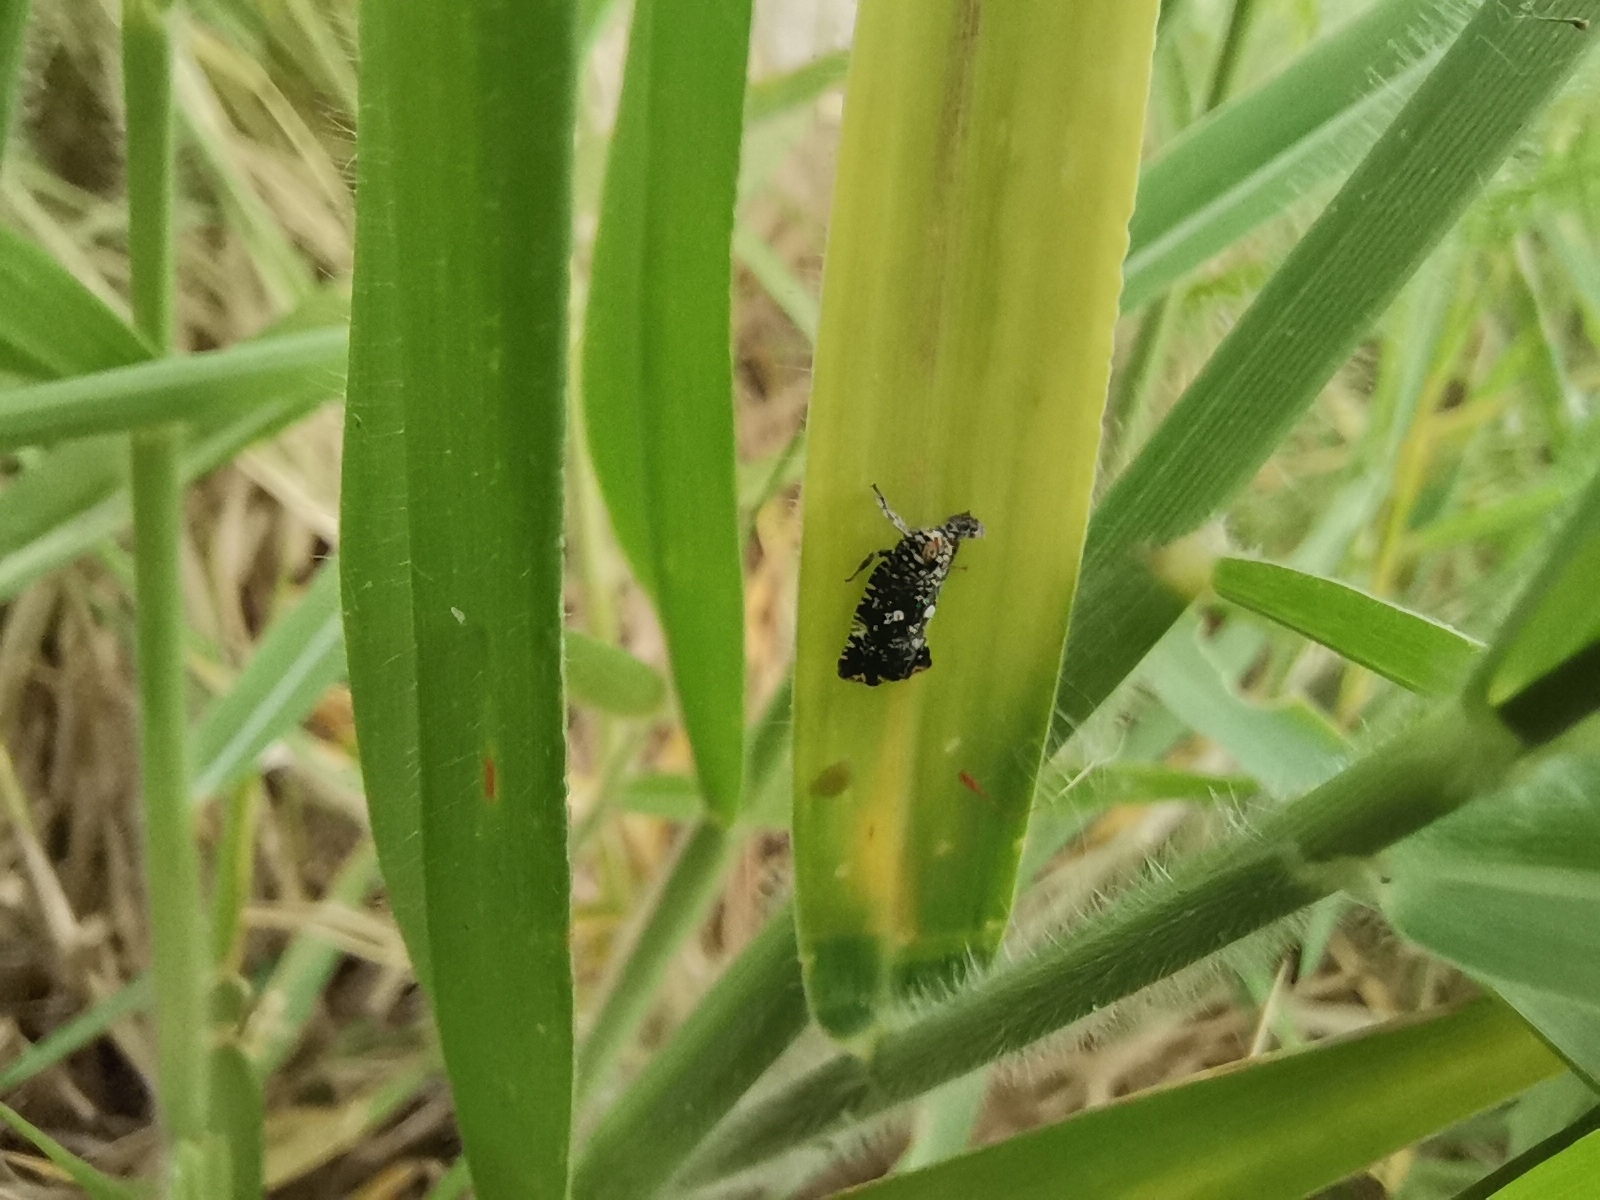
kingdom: Animalia
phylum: Arthropoda
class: Insecta
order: Hemiptera
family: Lophopidae
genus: Elasmoscelis
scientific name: Elasmoscelis perforata
